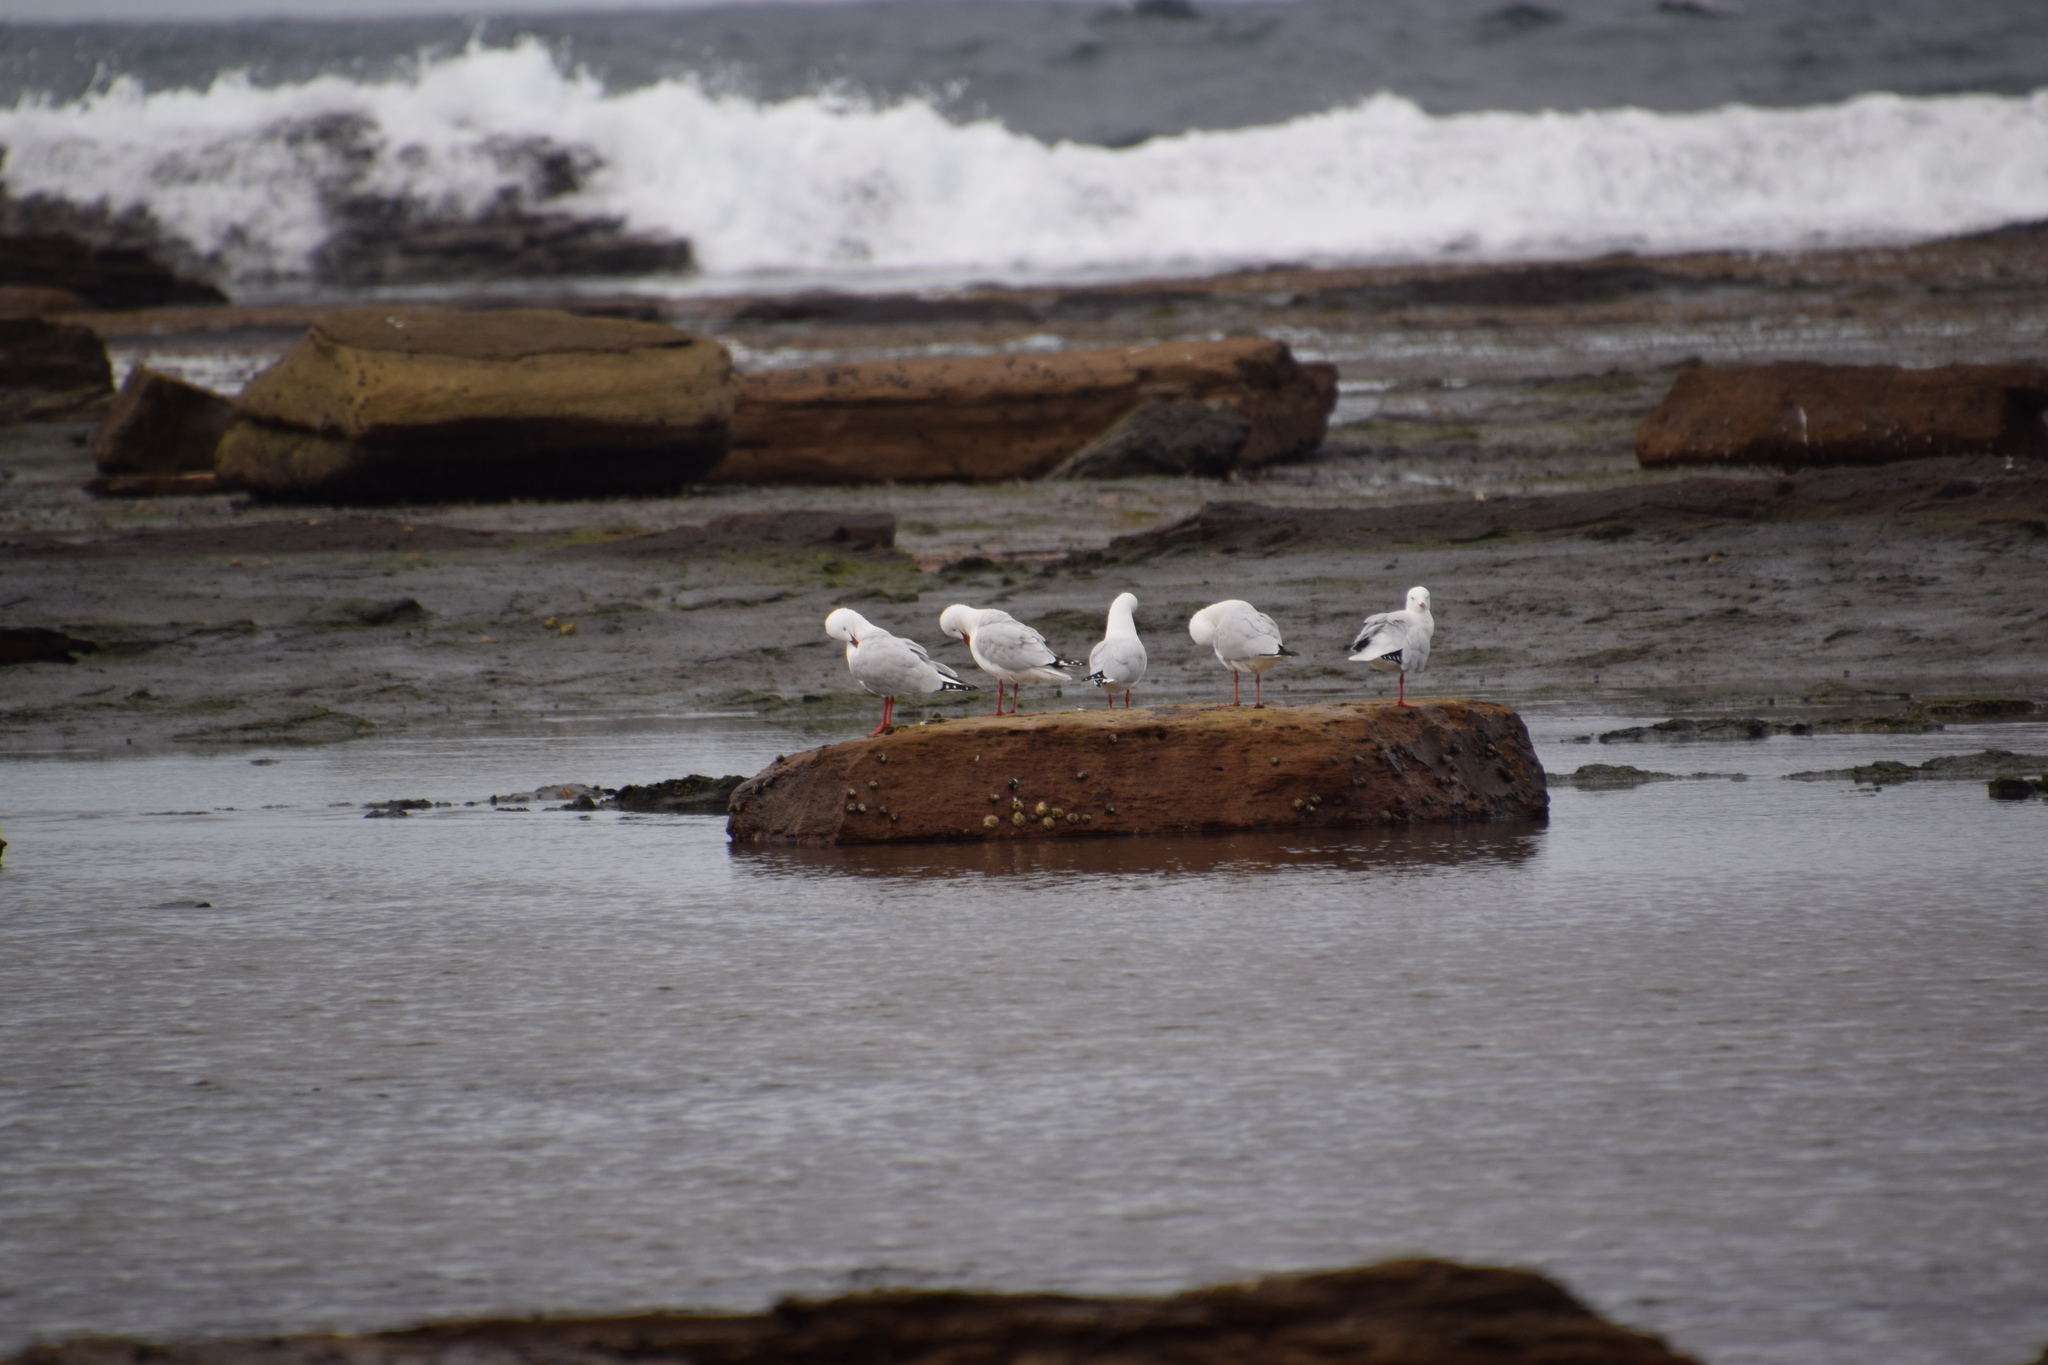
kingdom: Animalia
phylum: Chordata
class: Aves
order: Charadriiformes
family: Laridae
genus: Chroicocephalus
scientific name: Chroicocephalus novaehollandiae
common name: Silver gull
